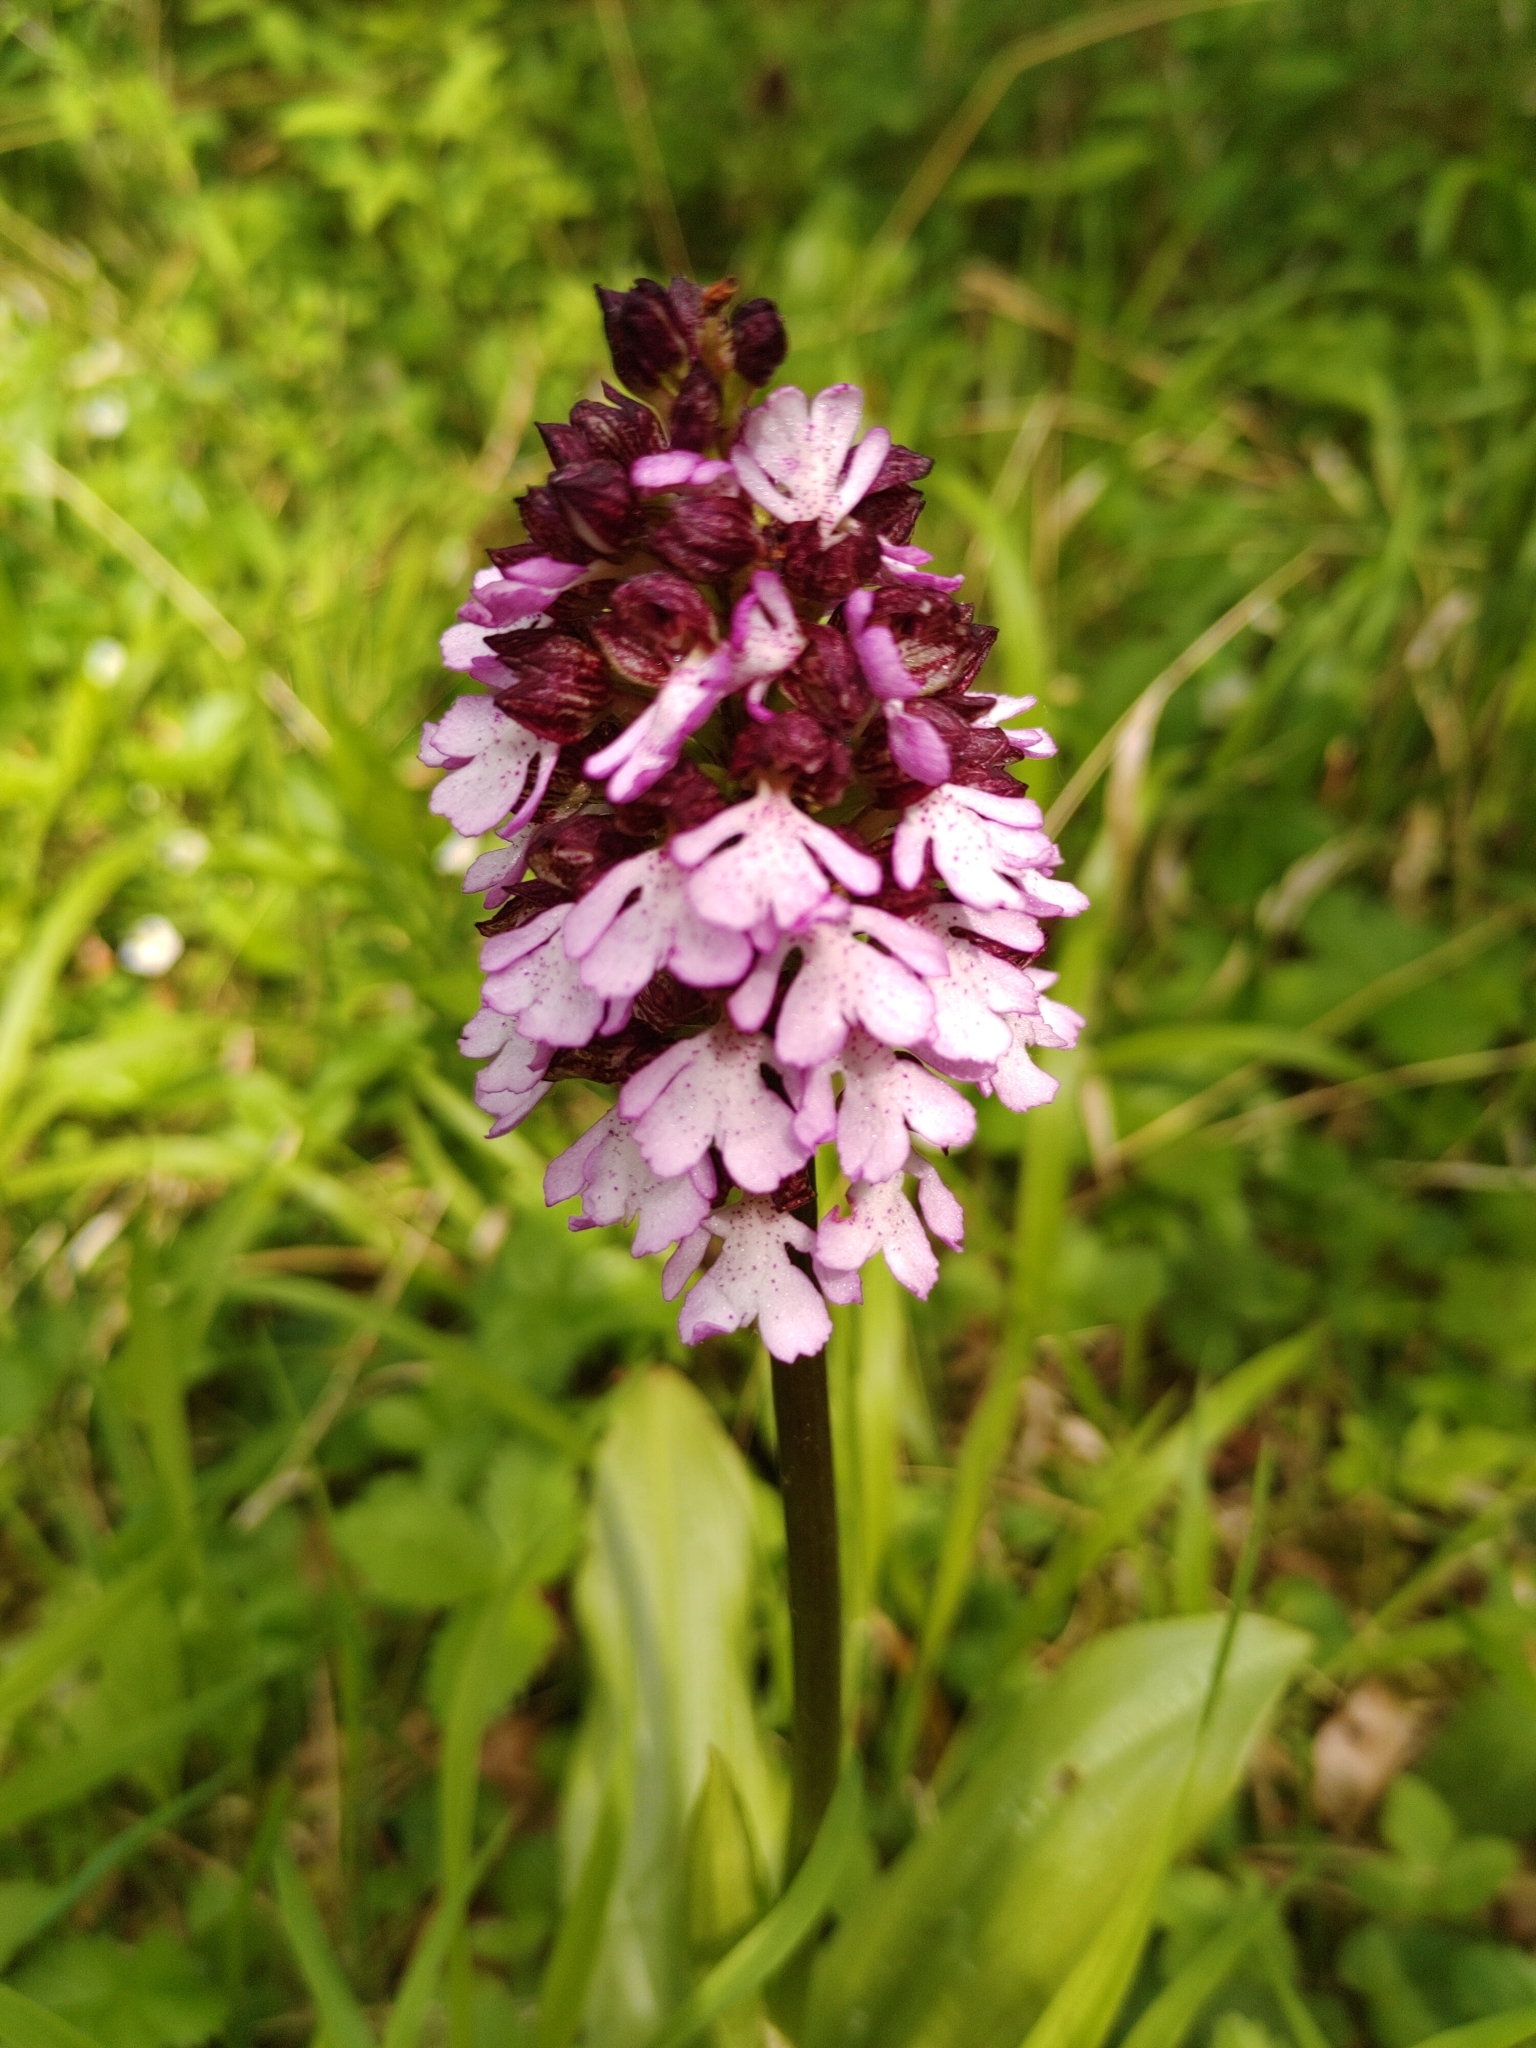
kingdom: Plantae
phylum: Tracheophyta
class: Liliopsida
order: Asparagales
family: Orchidaceae
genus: Orchis
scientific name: Orchis purpurea
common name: Lady orchid
